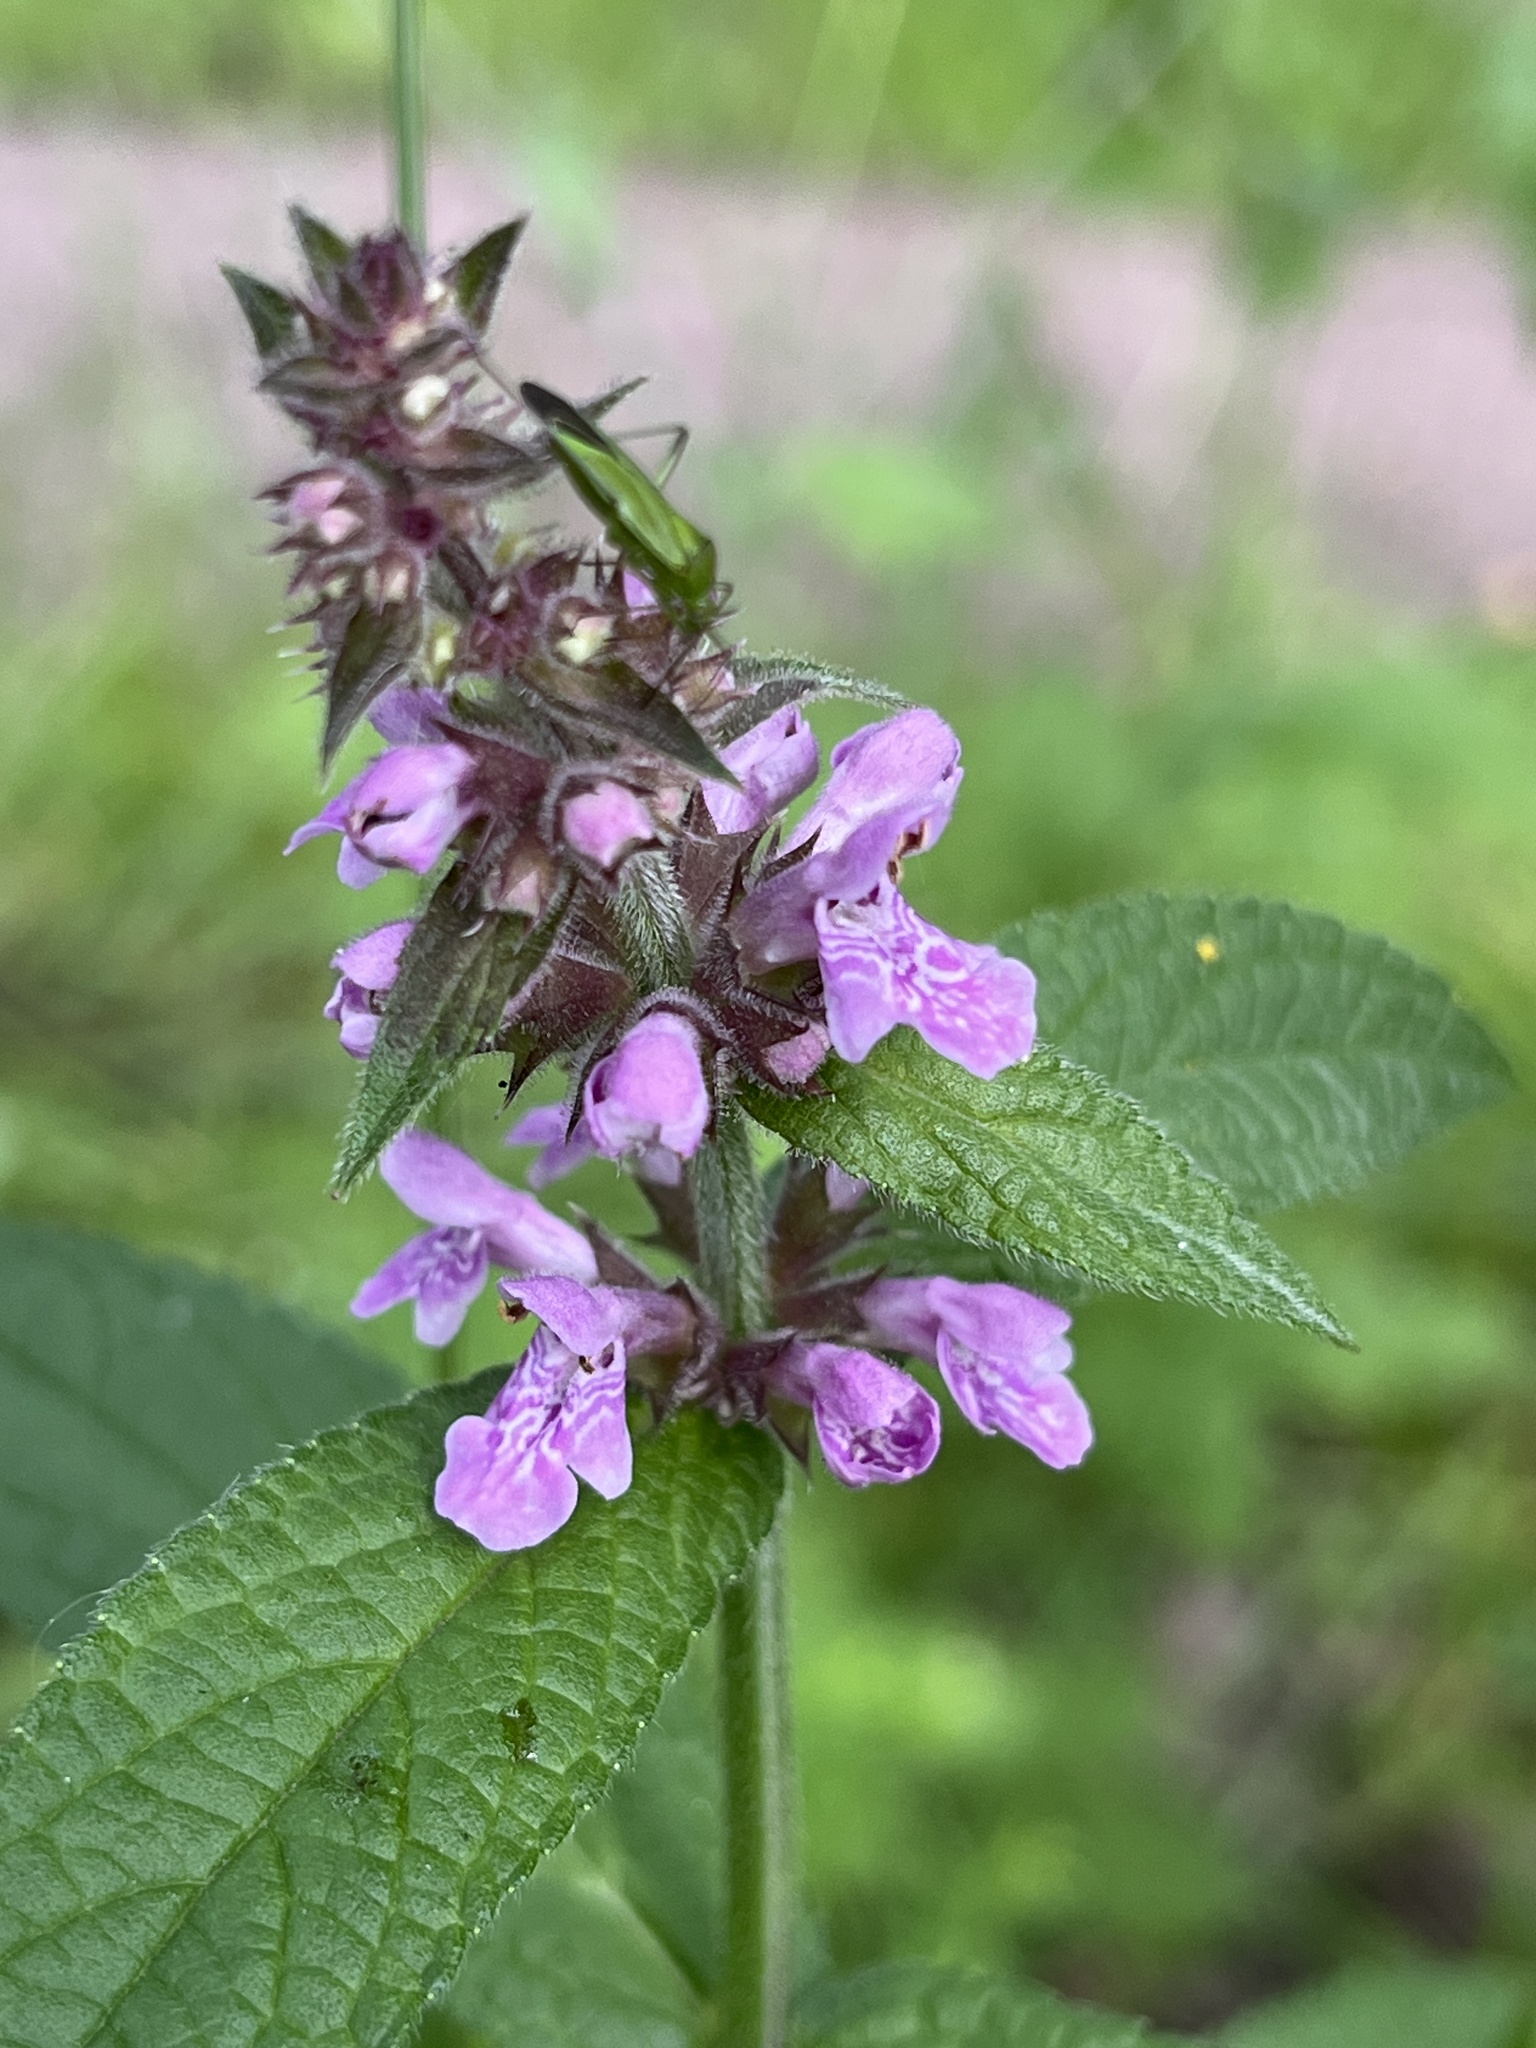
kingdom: Plantae
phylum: Tracheophyta
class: Magnoliopsida
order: Lamiales
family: Lamiaceae
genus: Stachys
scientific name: Stachys palustris
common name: Marsh woundwort
